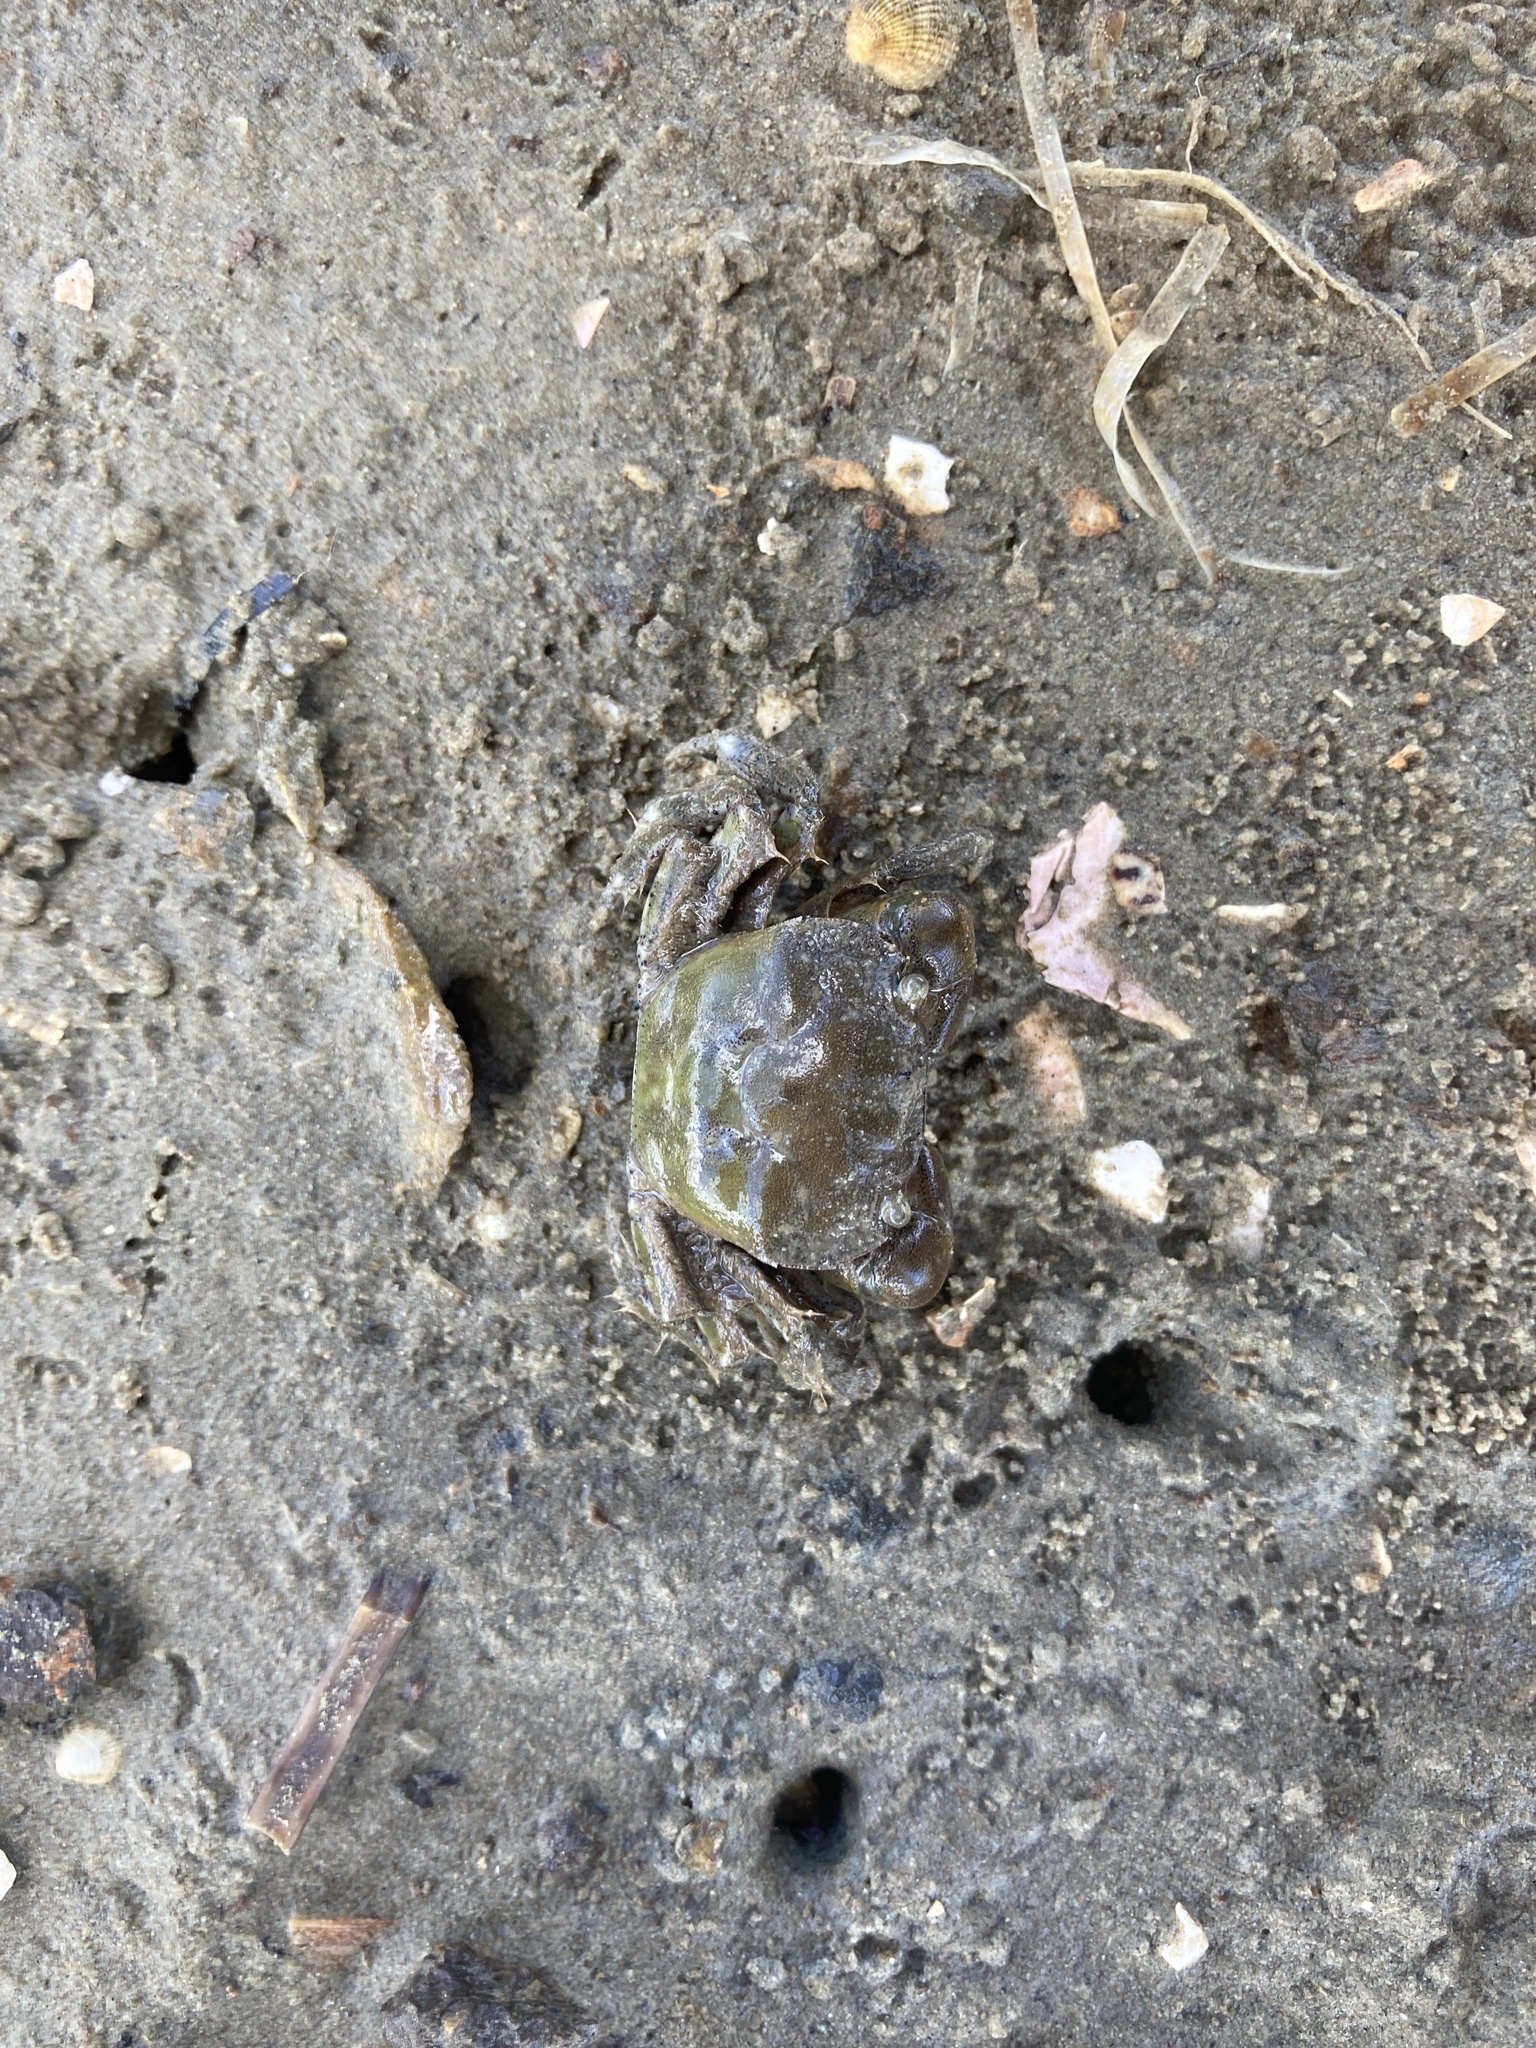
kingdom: Animalia
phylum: Arthropoda
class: Malacostraca
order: Decapoda
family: Varunidae
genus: Hemigrapsus
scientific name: Hemigrapsus crenulatus
